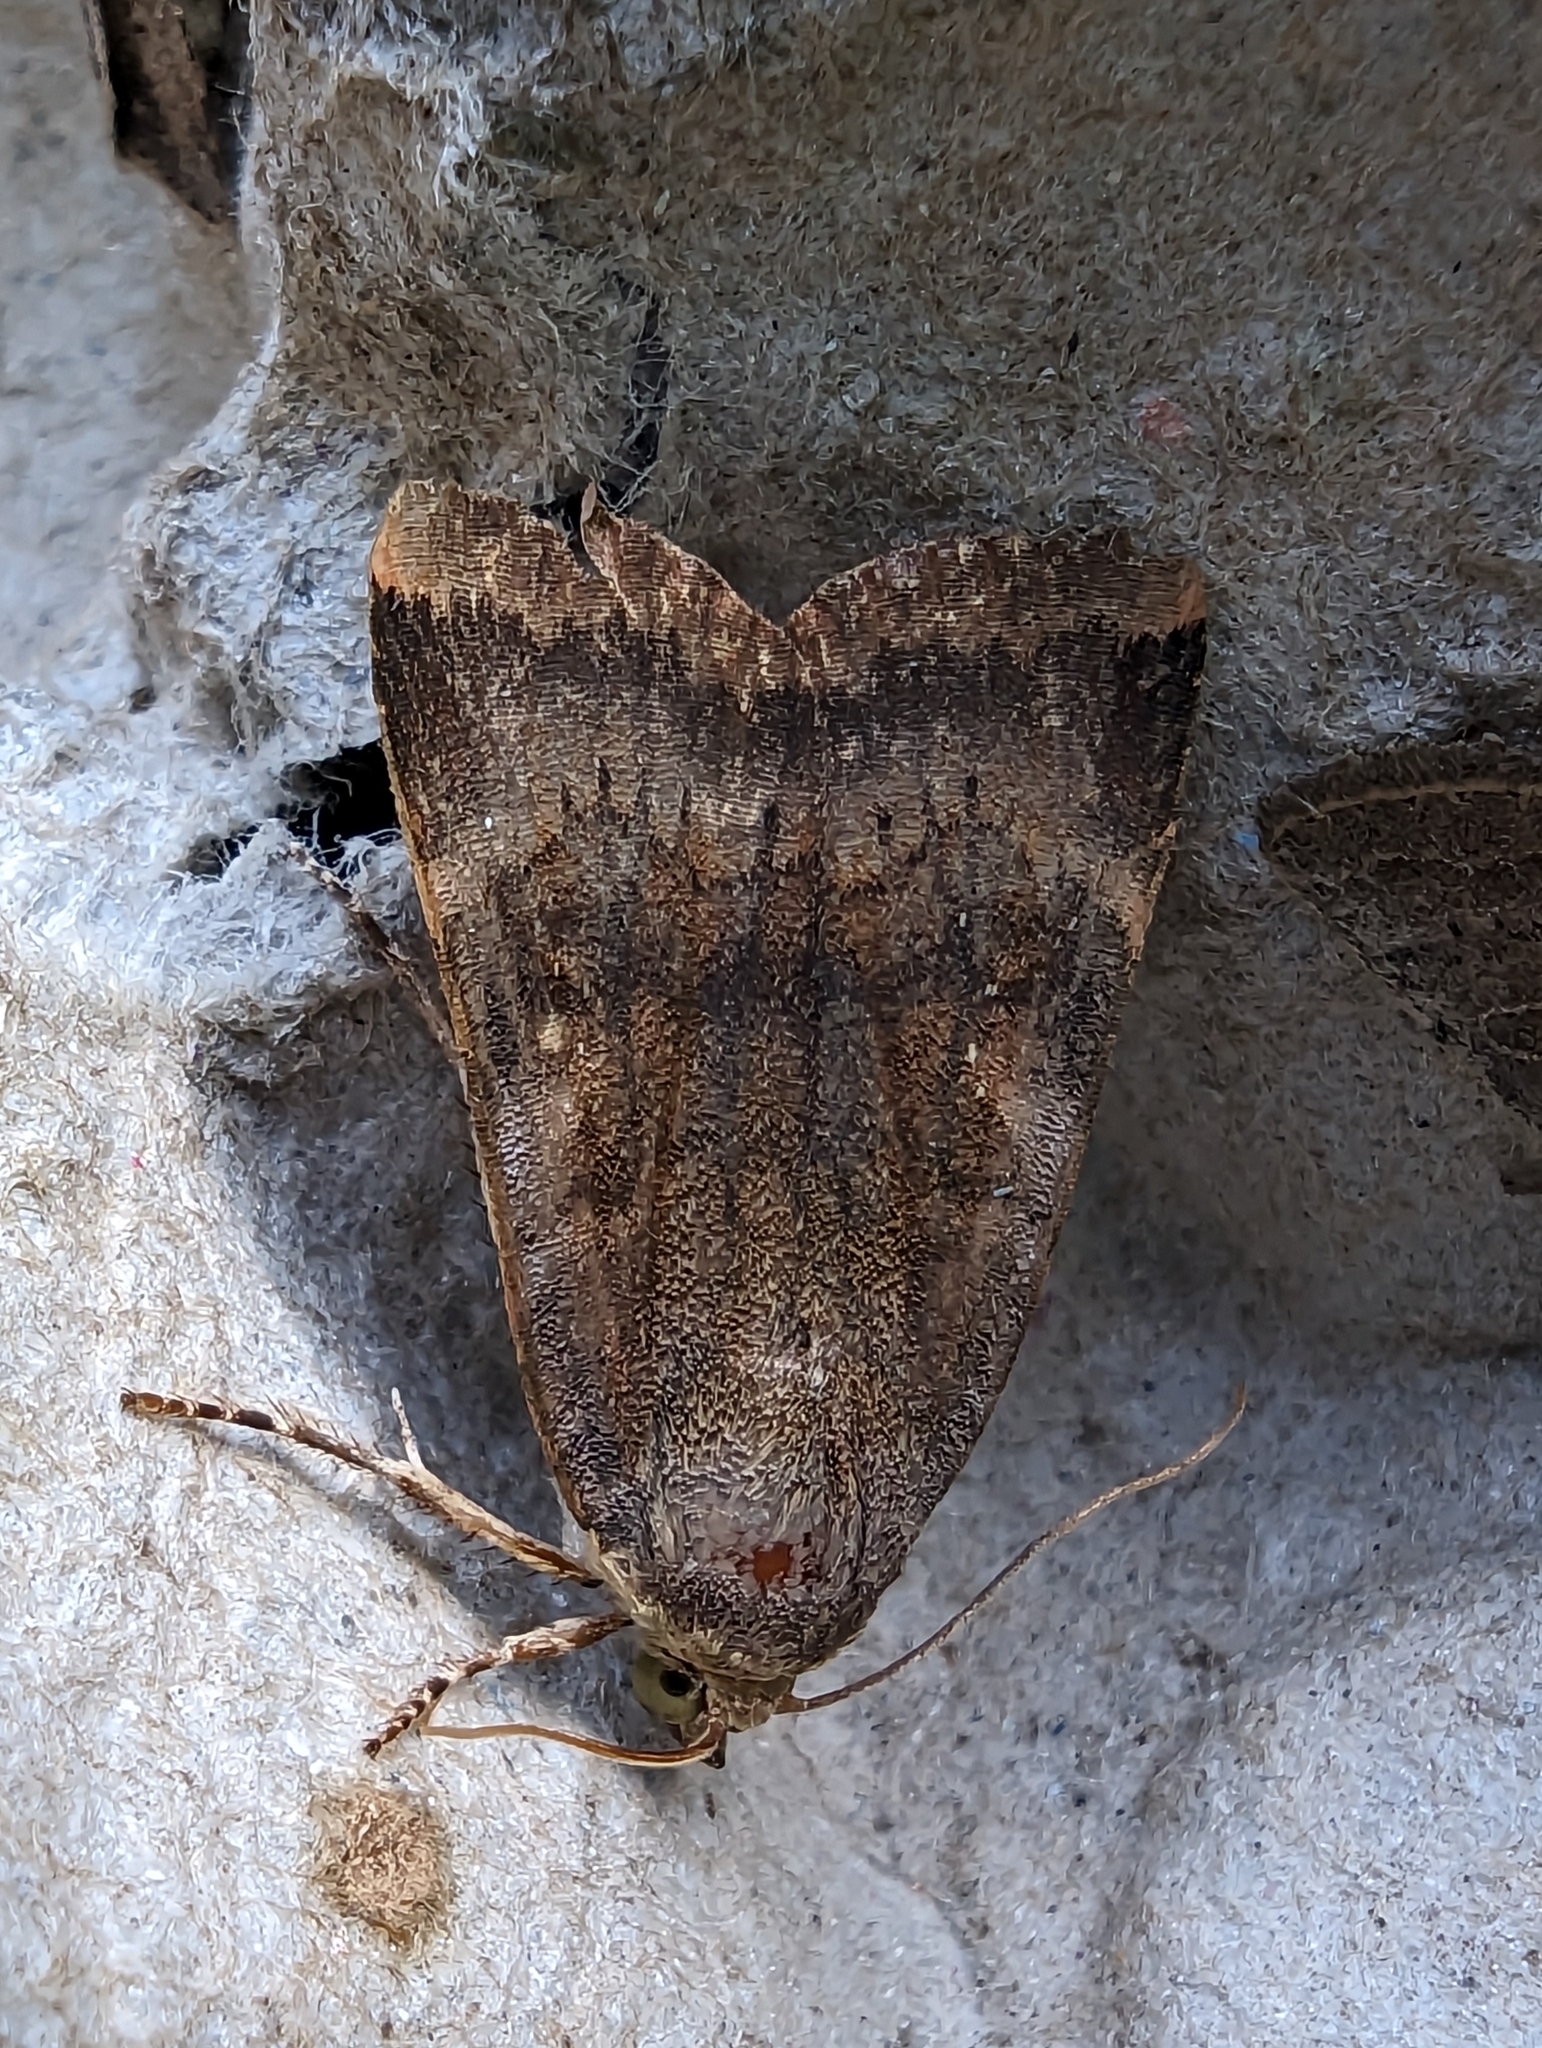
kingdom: Animalia
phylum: Arthropoda
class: Insecta
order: Lepidoptera
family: Noctuidae
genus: Noctua
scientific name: Noctua
